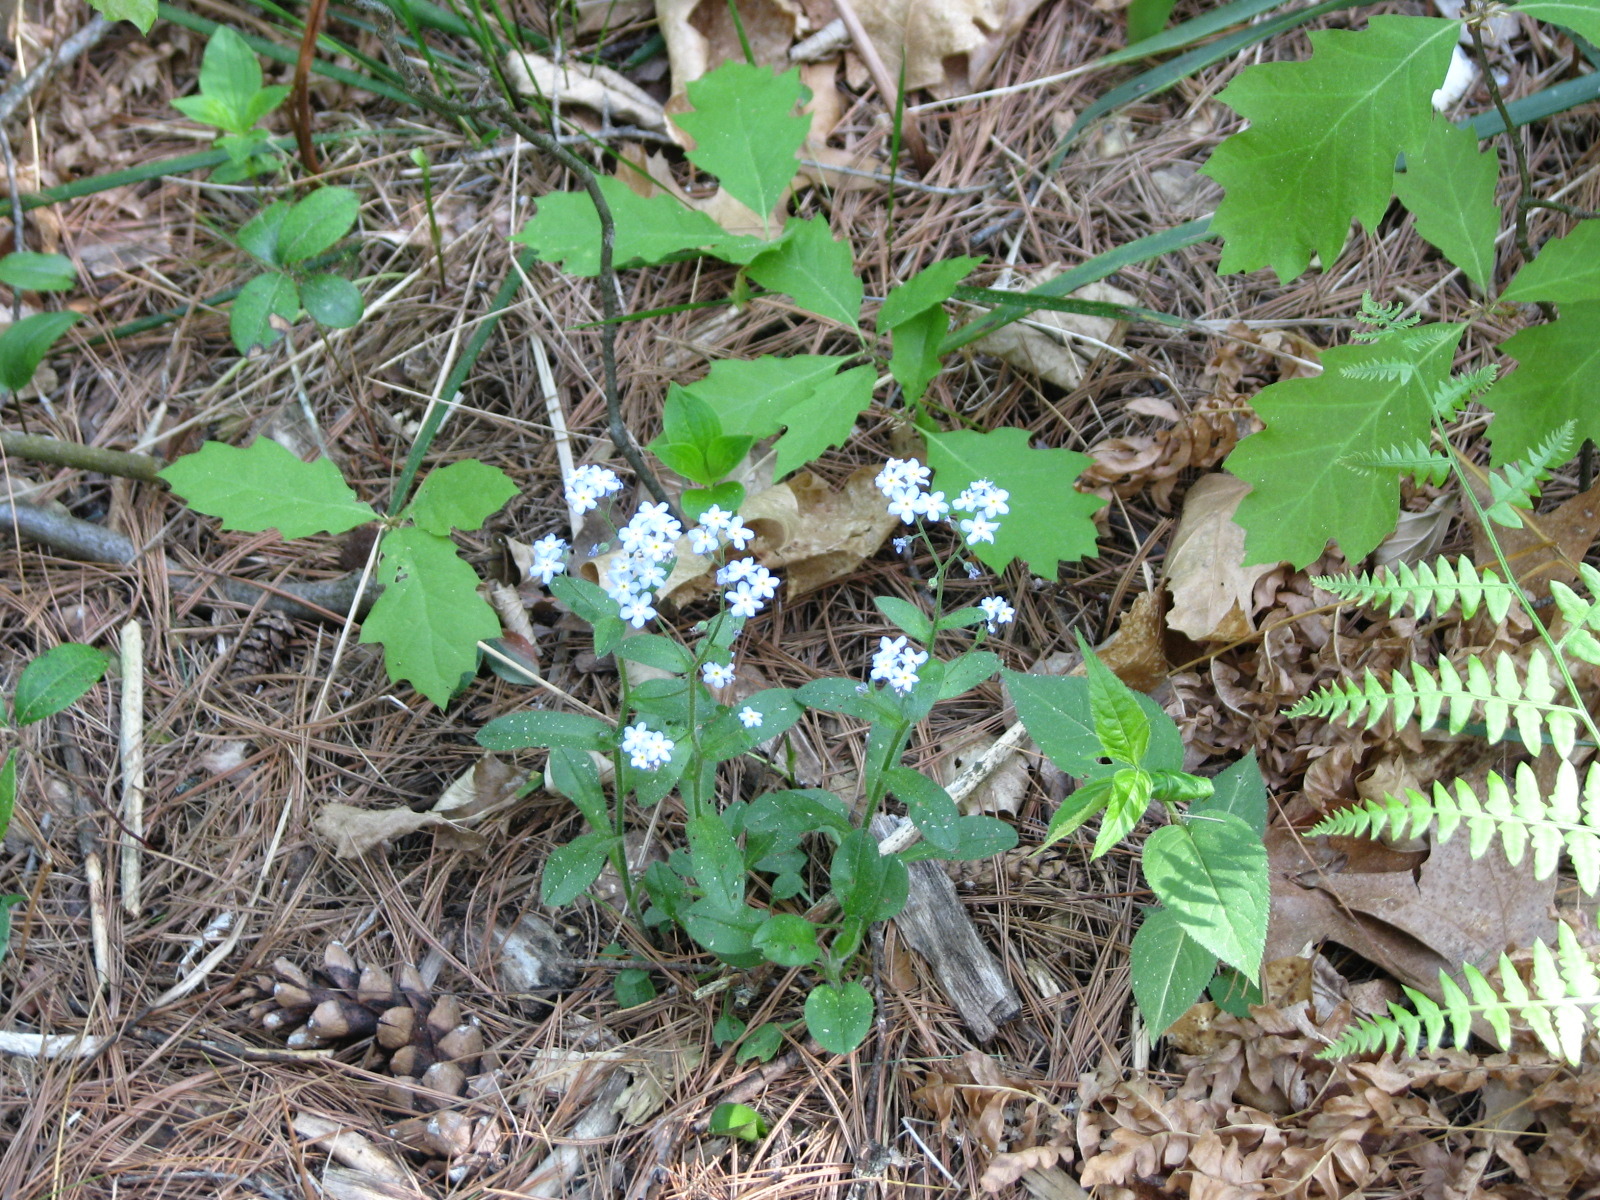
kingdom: Plantae
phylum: Tracheophyta
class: Magnoliopsida
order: Boraginales
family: Boraginaceae
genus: Myosotis
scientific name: Myosotis sylvatica
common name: Wood forget-me-not
